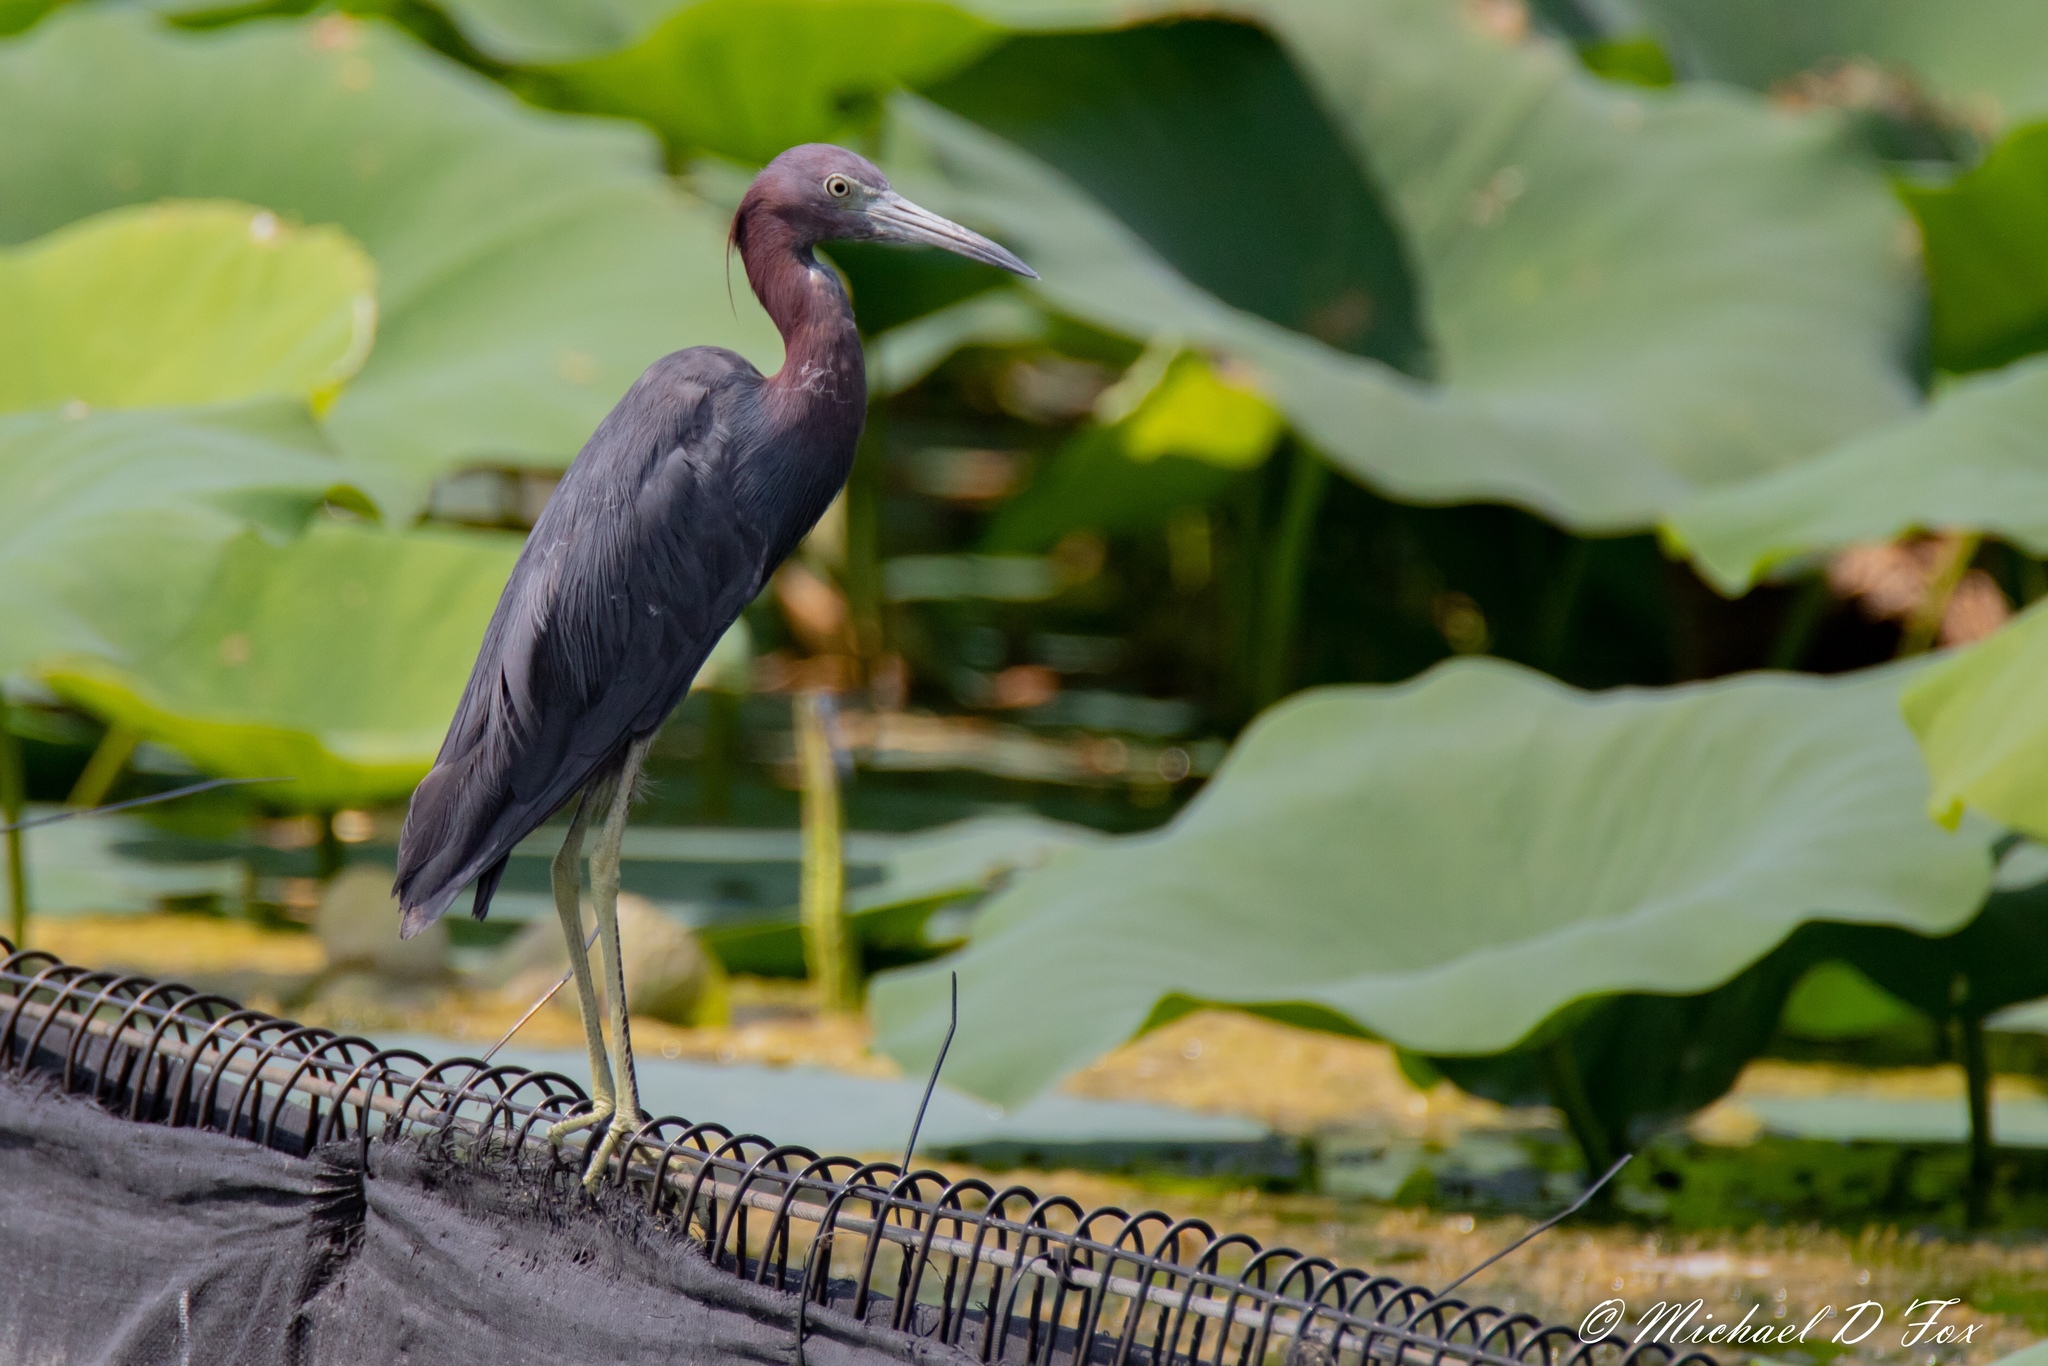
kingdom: Animalia
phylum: Chordata
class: Aves
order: Pelecaniformes
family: Ardeidae
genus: Egretta
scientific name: Egretta caerulea
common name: Little blue heron
